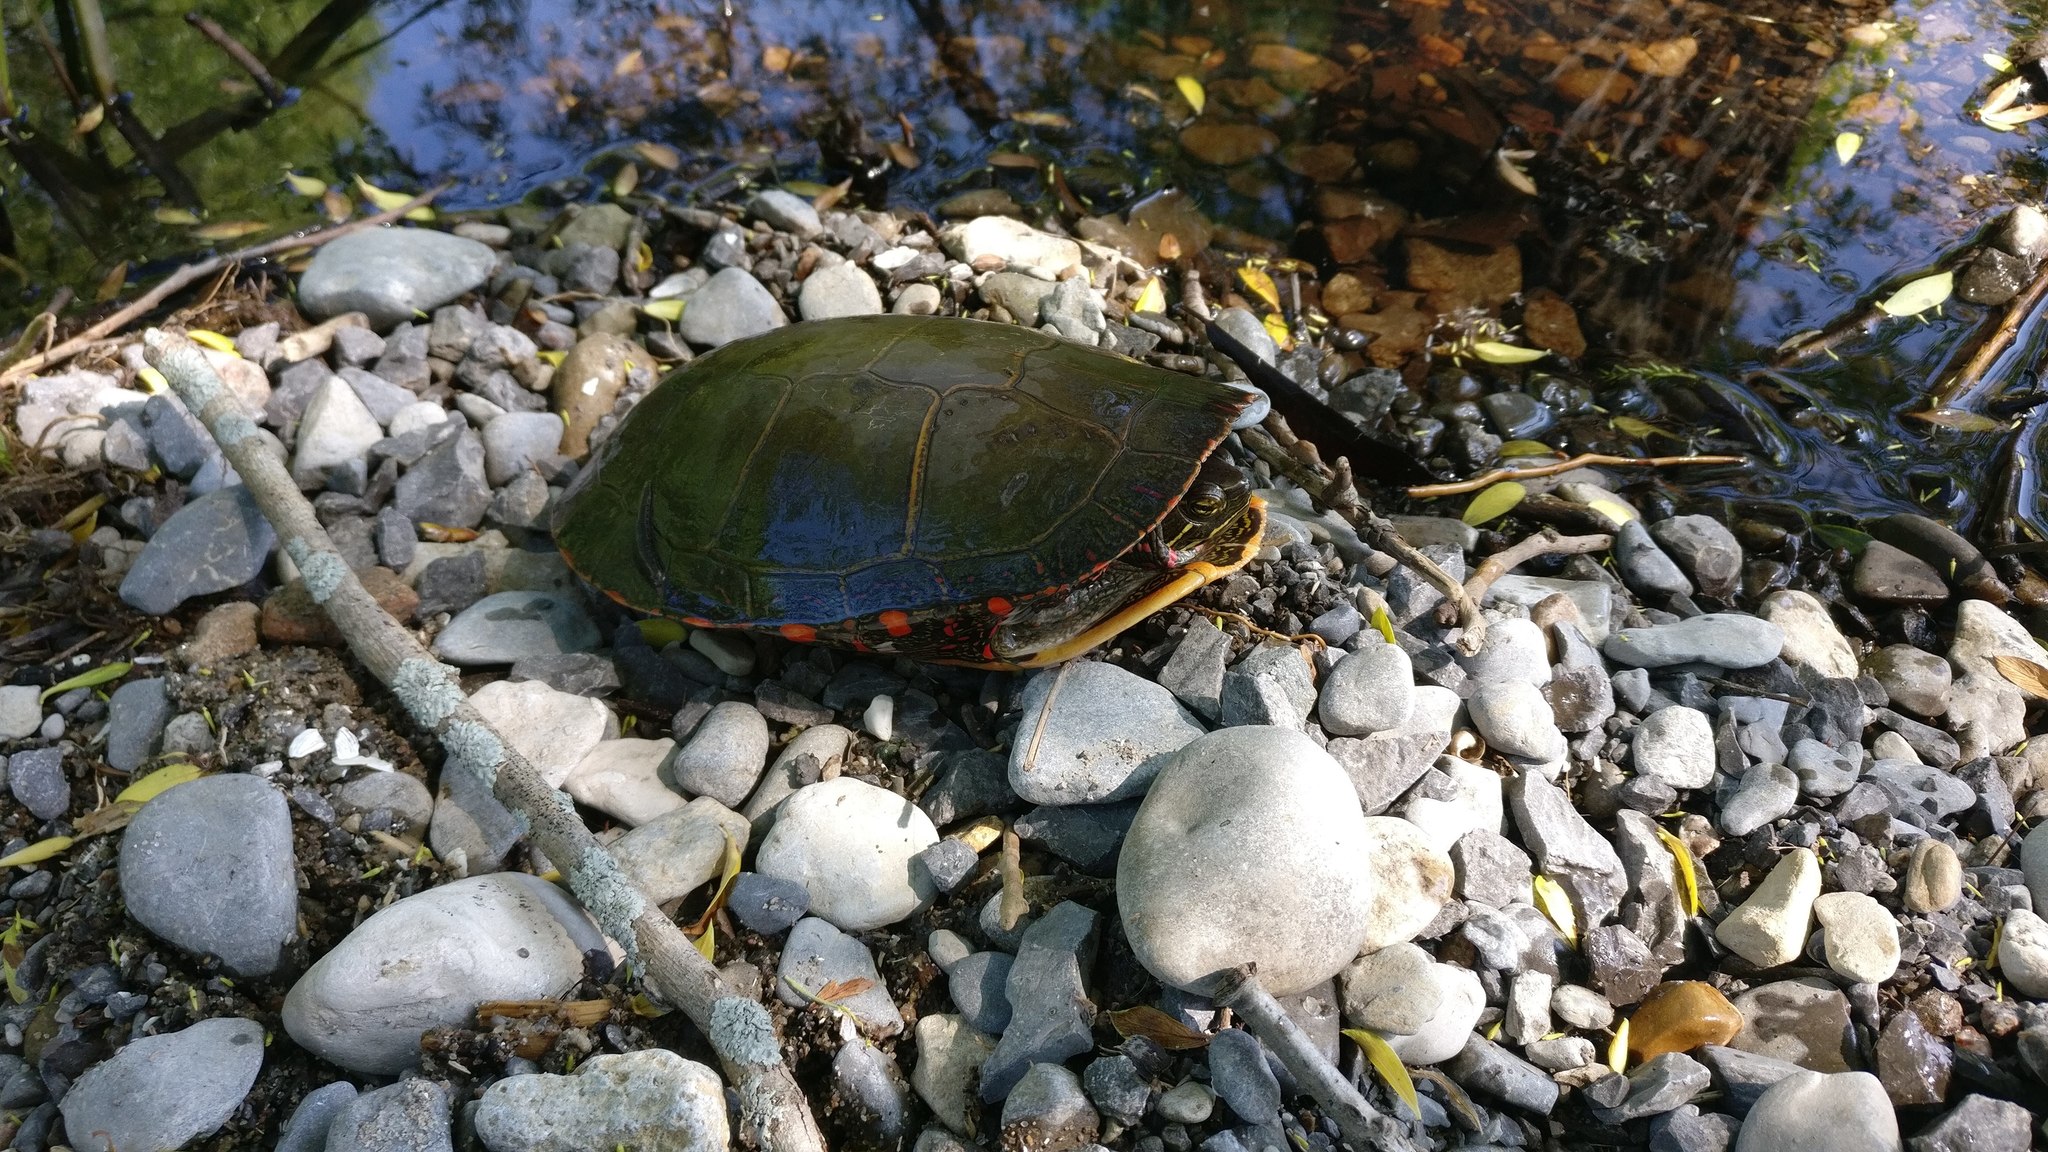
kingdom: Animalia
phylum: Chordata
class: Testudines
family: Emydidae
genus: Chrysemys
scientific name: Chrysemys picta
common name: Painted turtle
